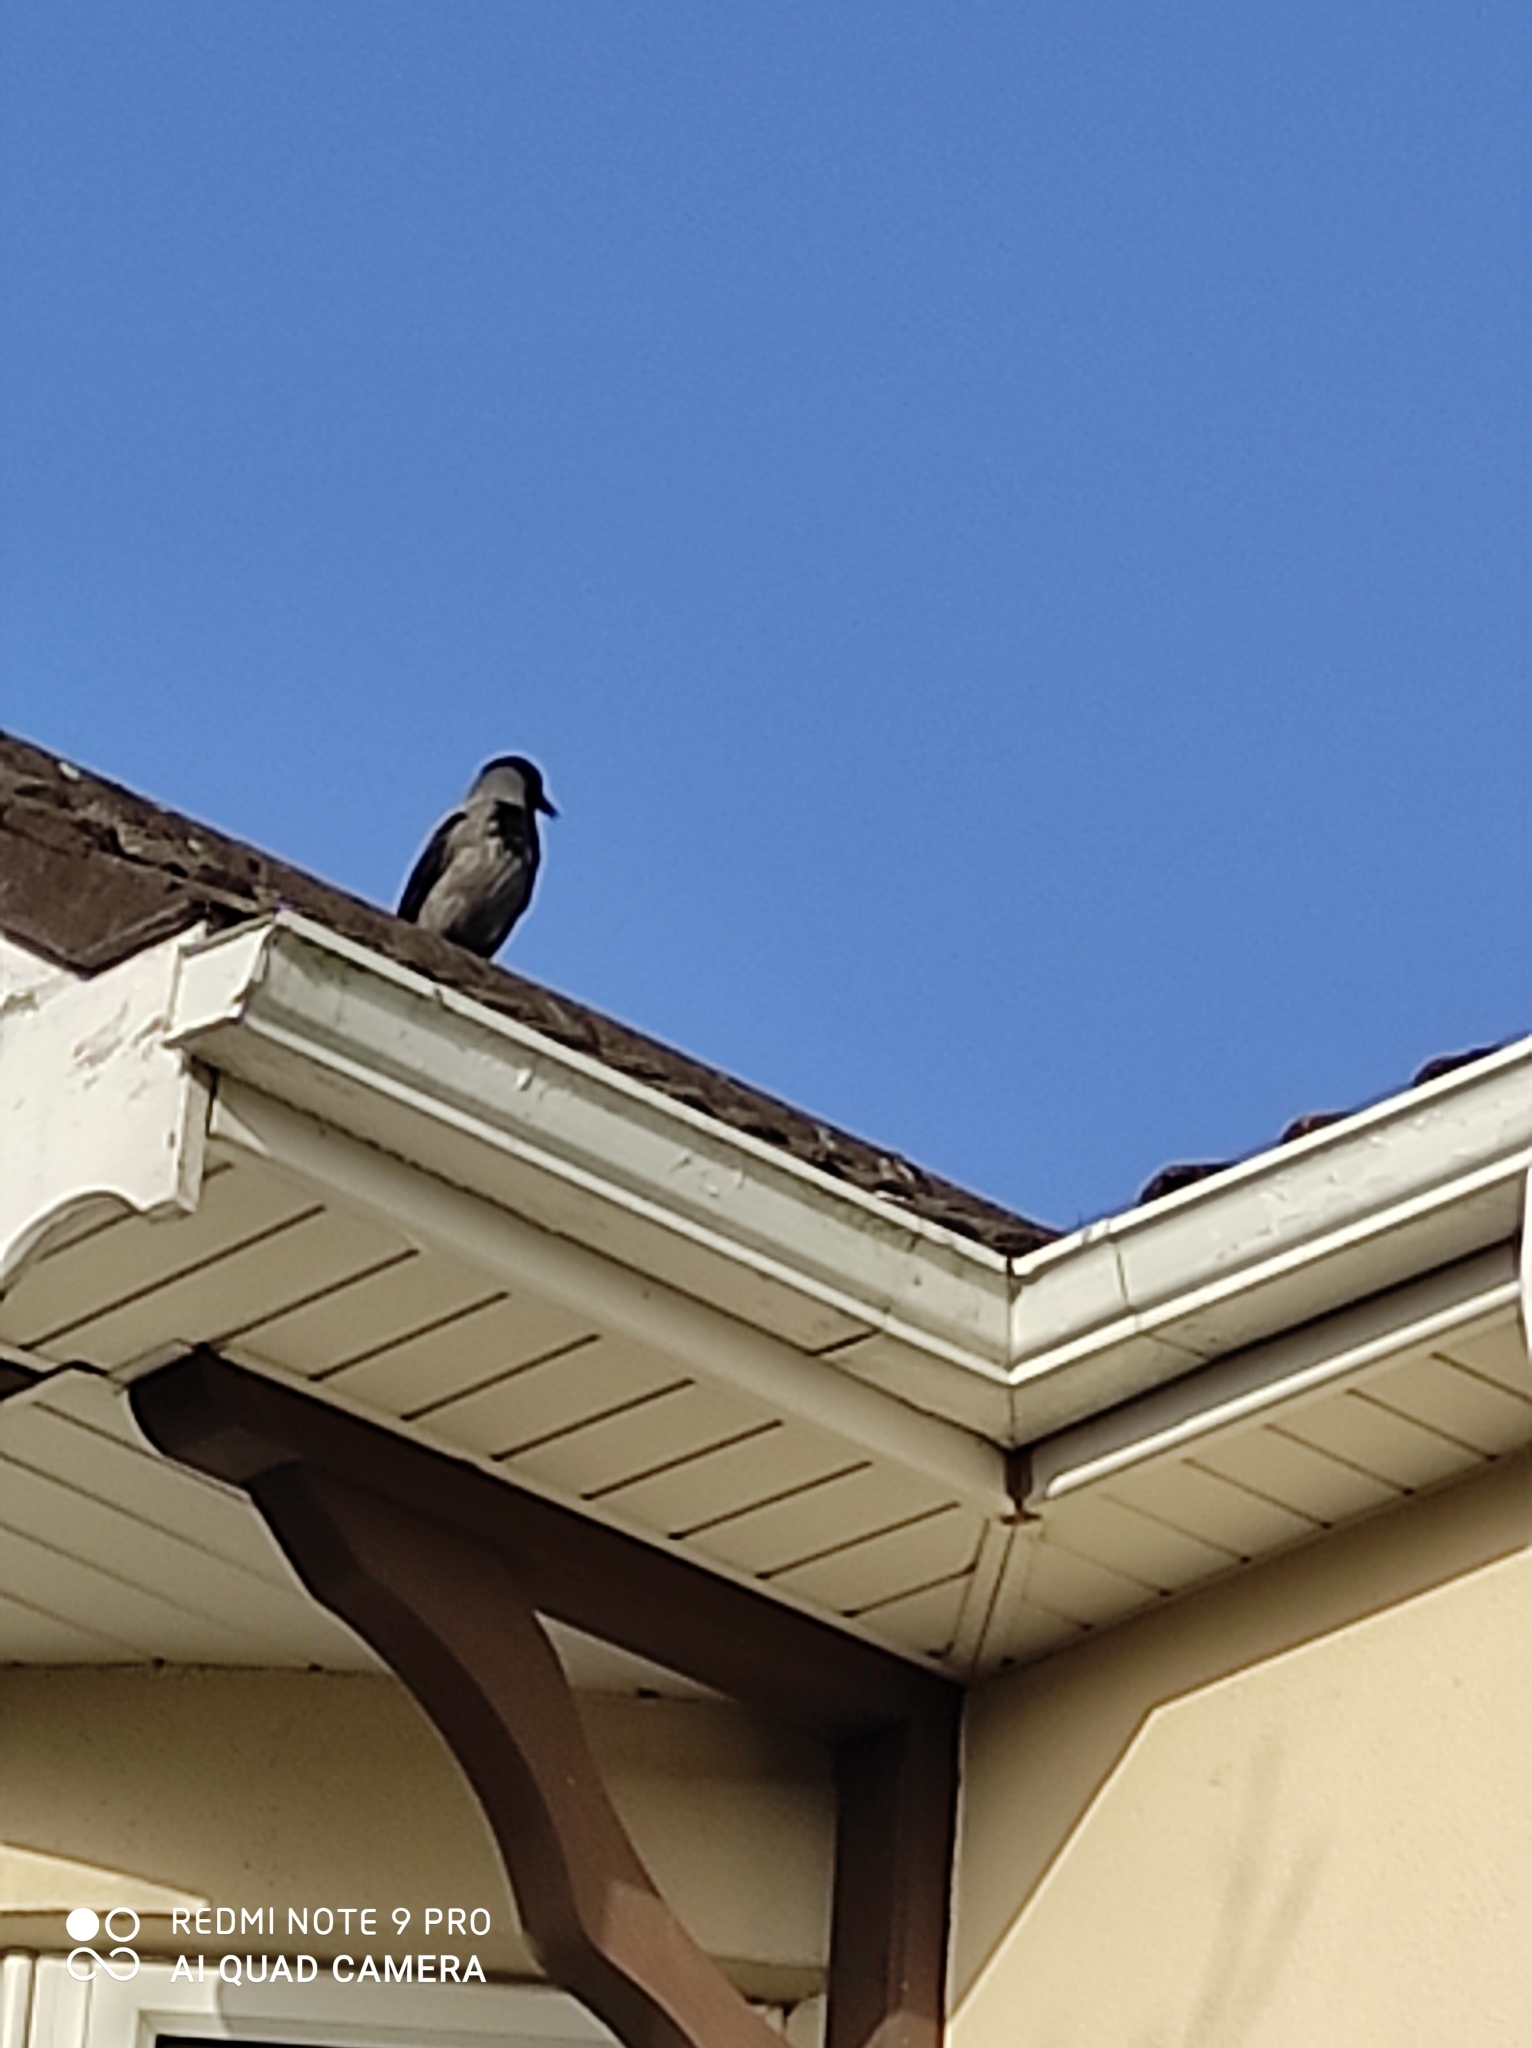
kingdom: Animalia
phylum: Chordata
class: Aves
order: Passeriformes
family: Corvidae
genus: Corvus
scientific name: Corvus cornix
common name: Hooded crow
